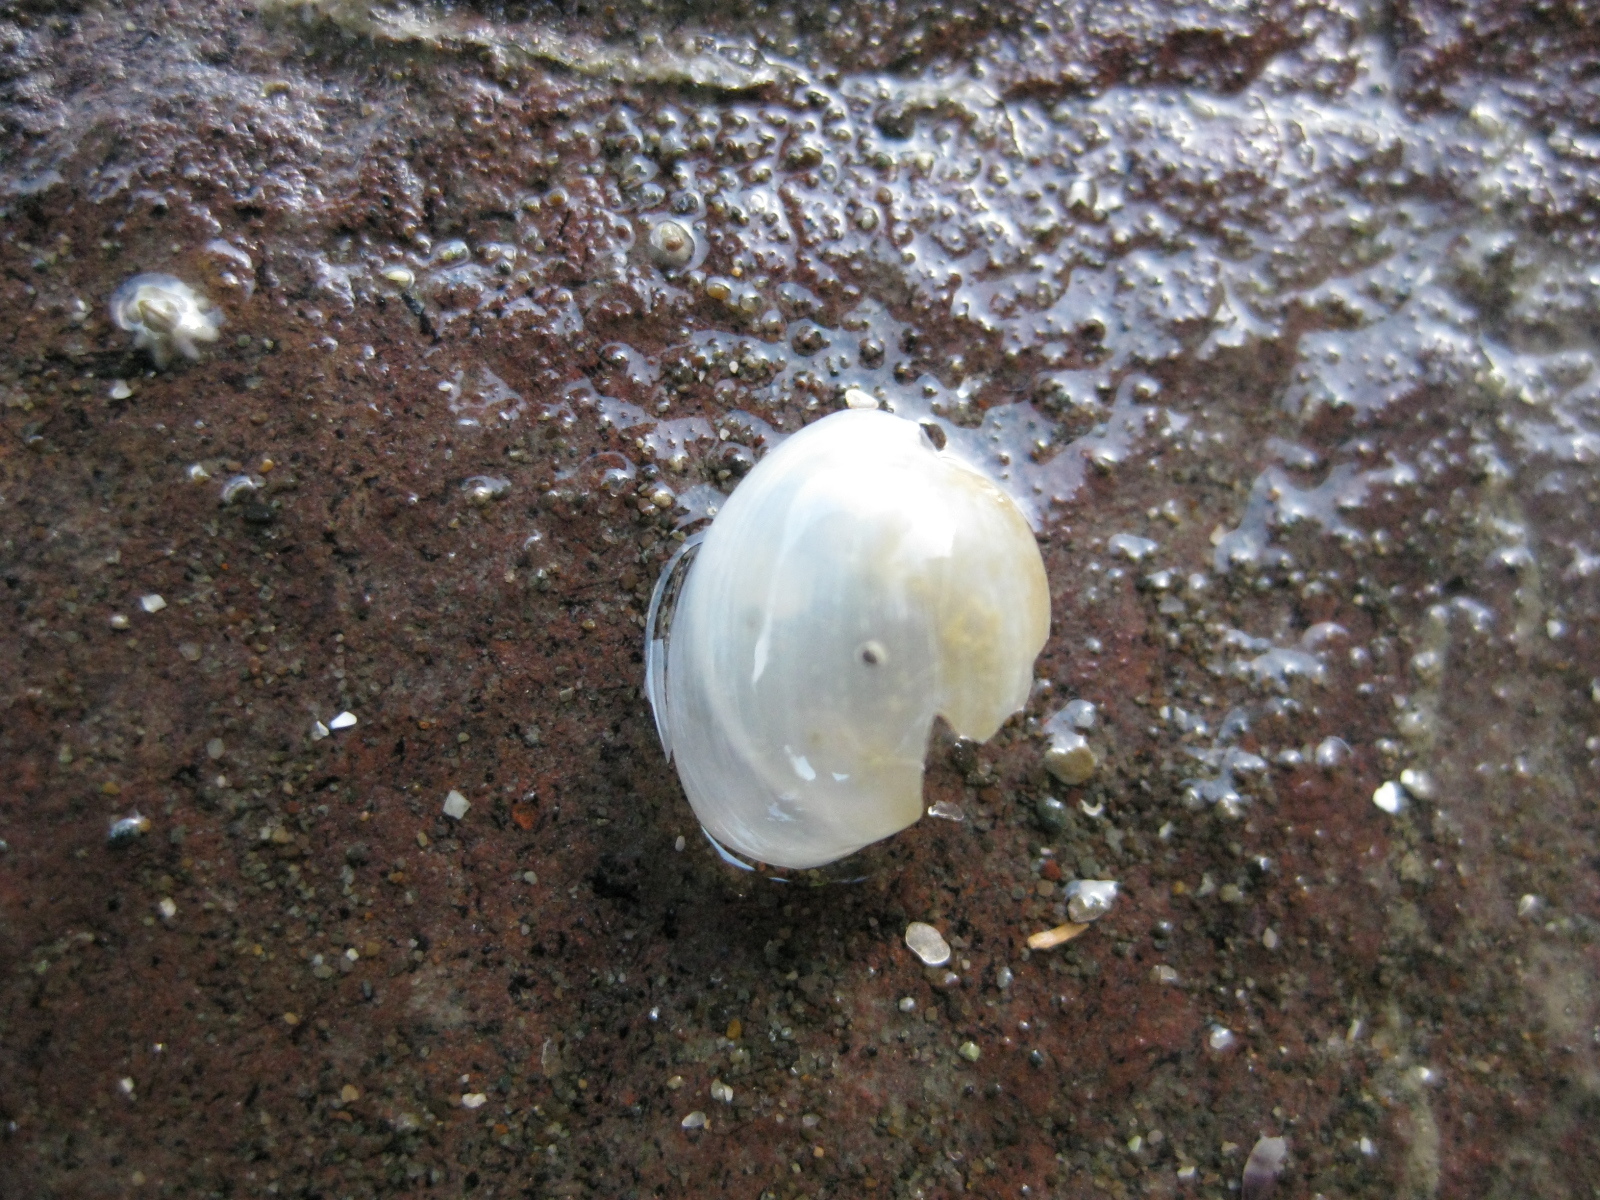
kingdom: Animalia
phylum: Mollusca
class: Gastropoda
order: Cephalaspidea
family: Haminoeidae
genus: Papawera
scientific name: Papawera zelandiae
